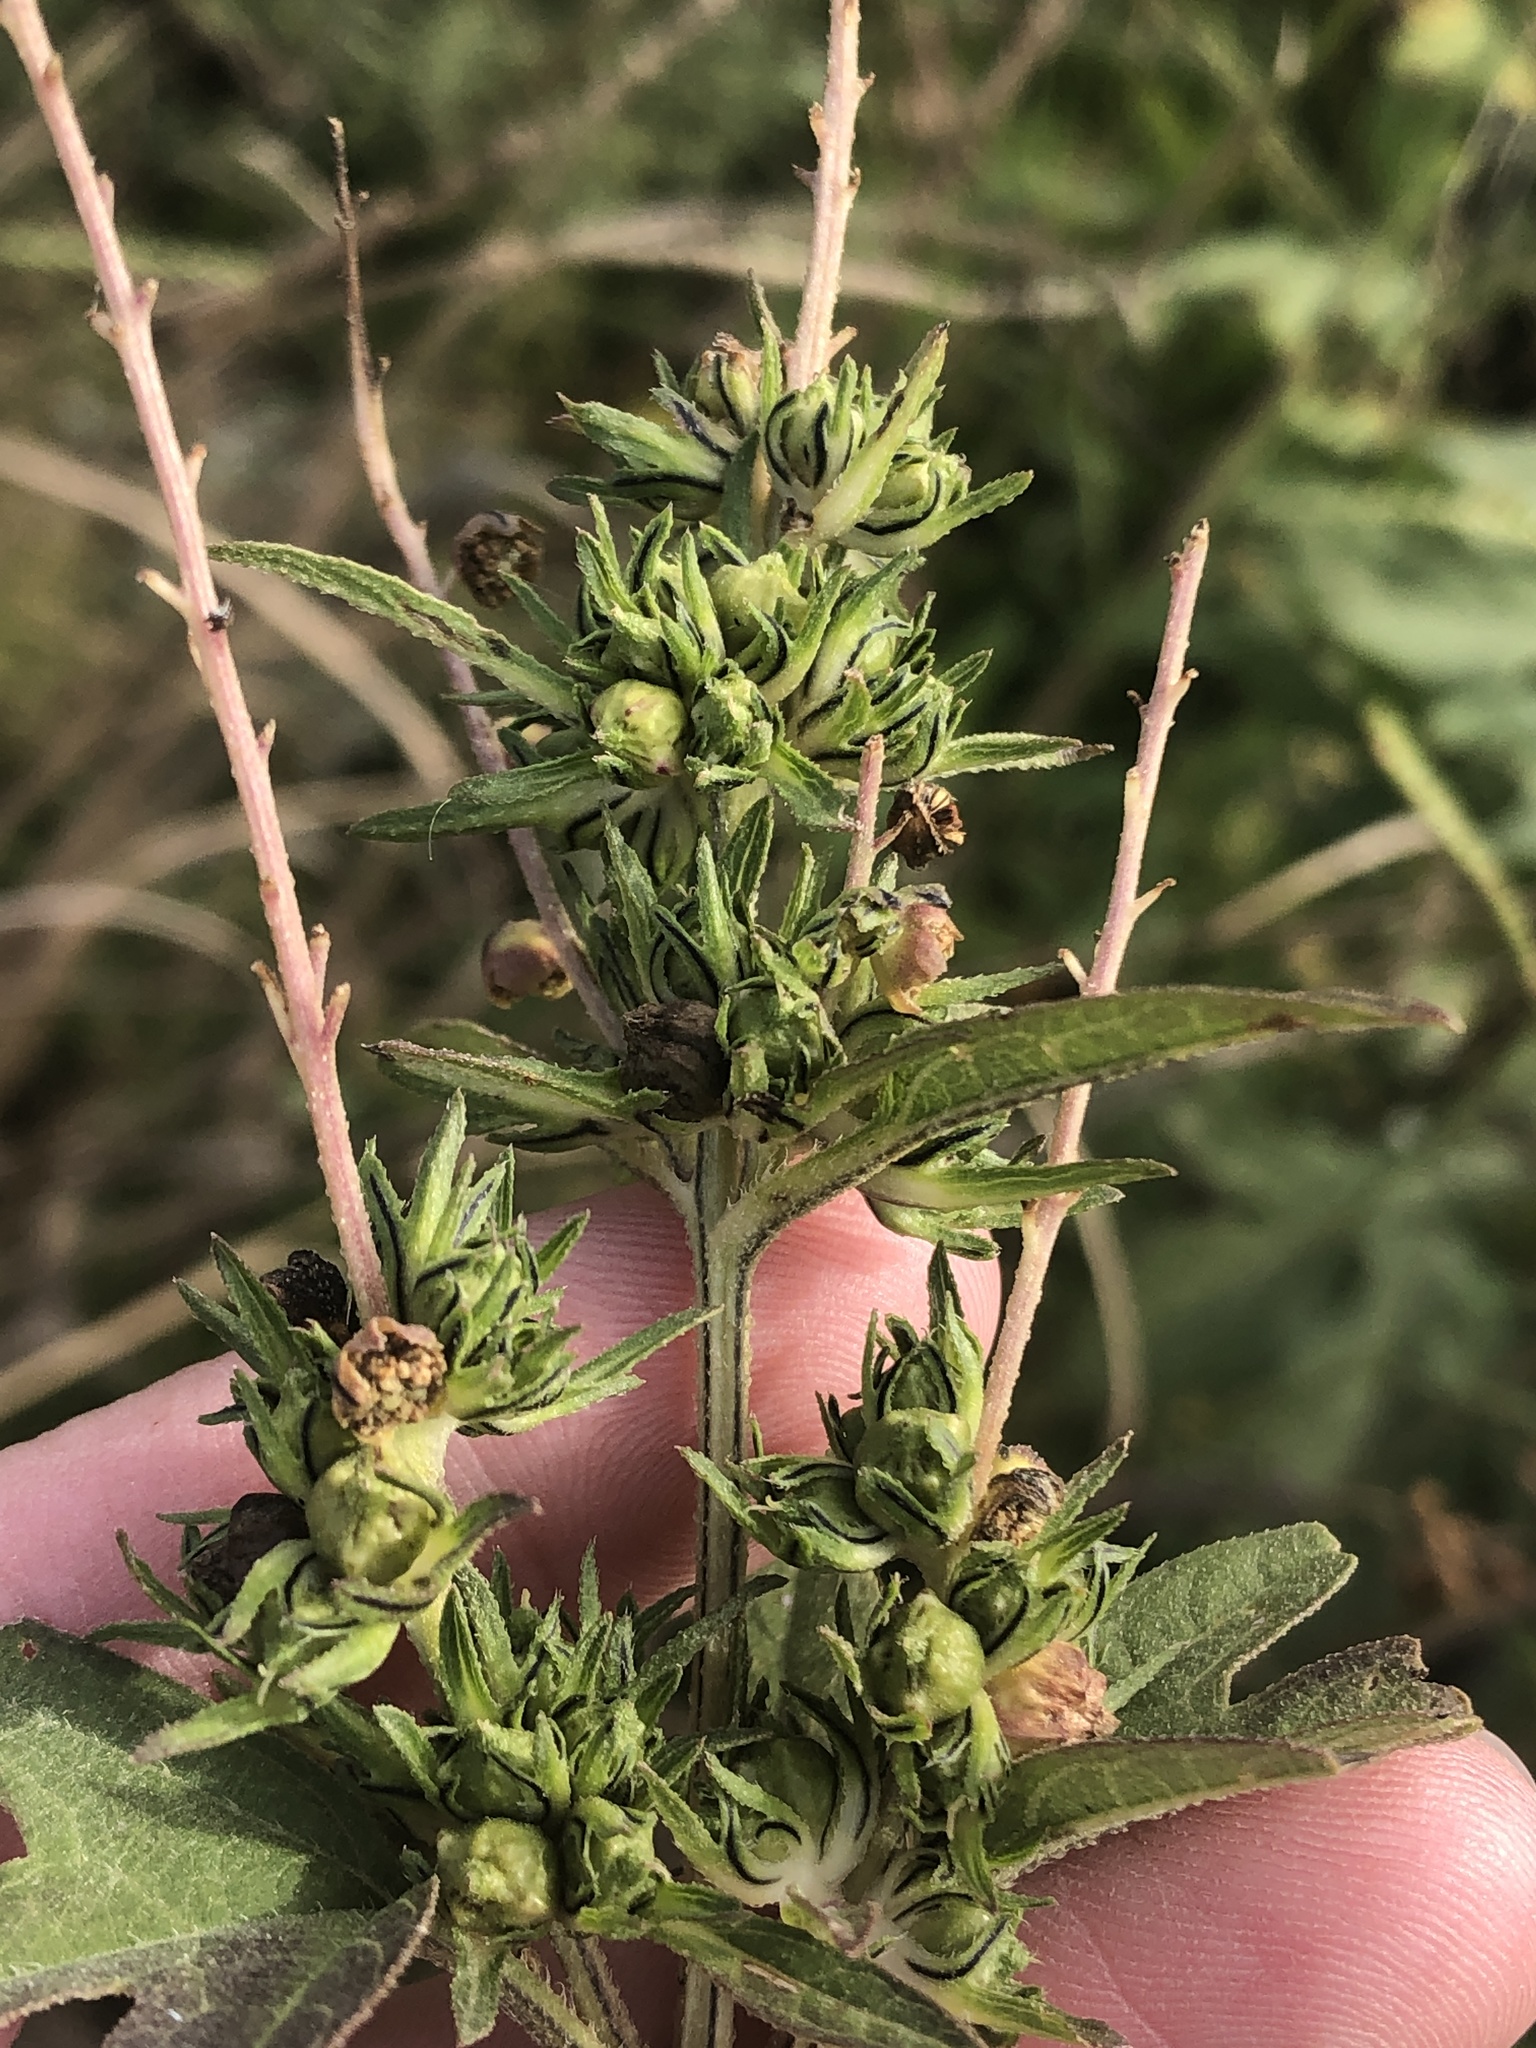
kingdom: Plantae
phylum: Tracheophyta
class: Magnoliopsida
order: Asterales
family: Asteraceae
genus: Ambrosia
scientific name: Ambrosia trifida
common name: Giant ragweed
